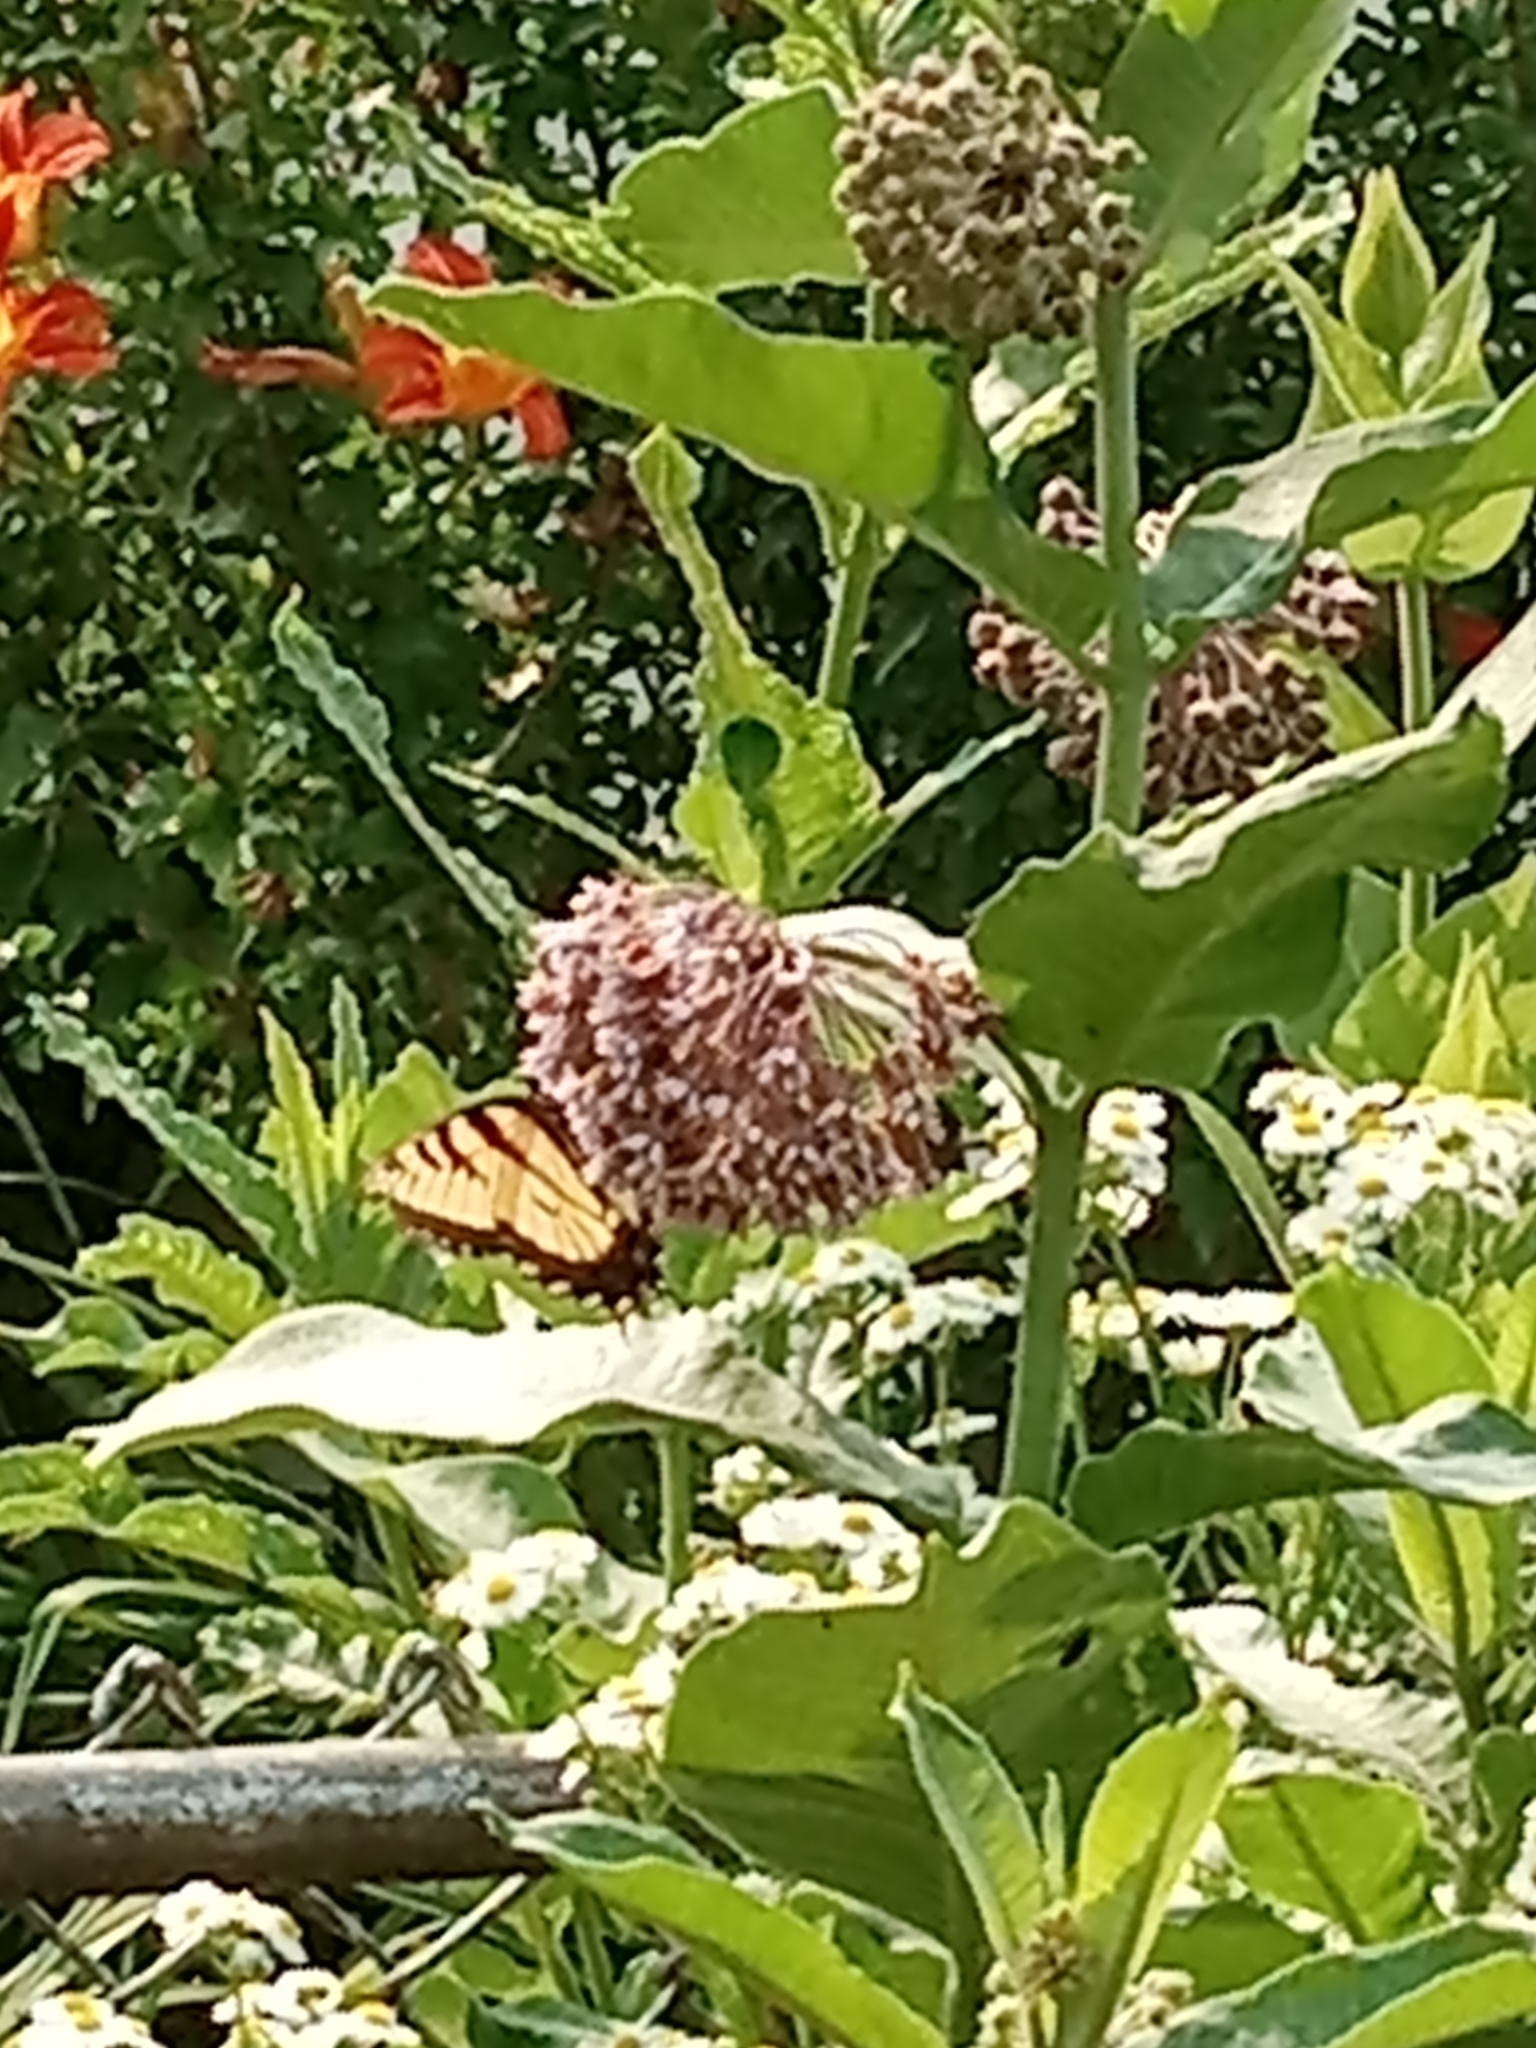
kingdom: Animalia
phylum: Arthropoda
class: Insecta
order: Lepidoptera
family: Papilionidae
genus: Papilio
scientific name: Papilio glaucus
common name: Tiger swallowtail
